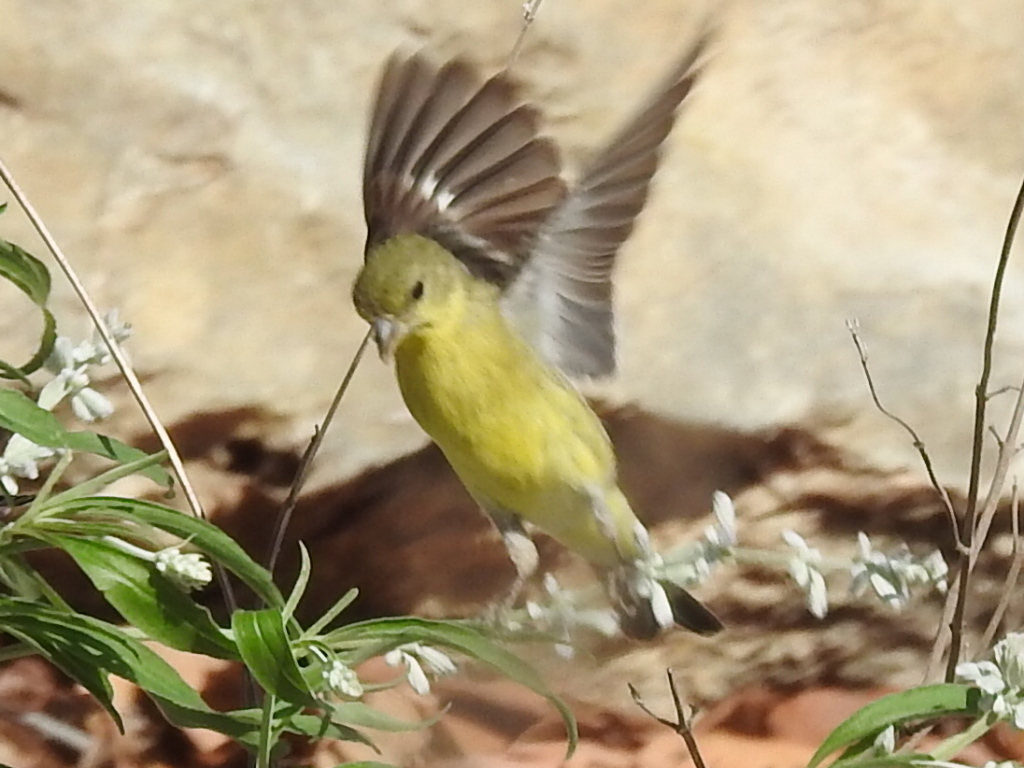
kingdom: Animalia
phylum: Chordata
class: Aves
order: Passeriformes
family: Fringillidae
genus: Spinus
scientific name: Spinus psaltria
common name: Lesser goldfinch
